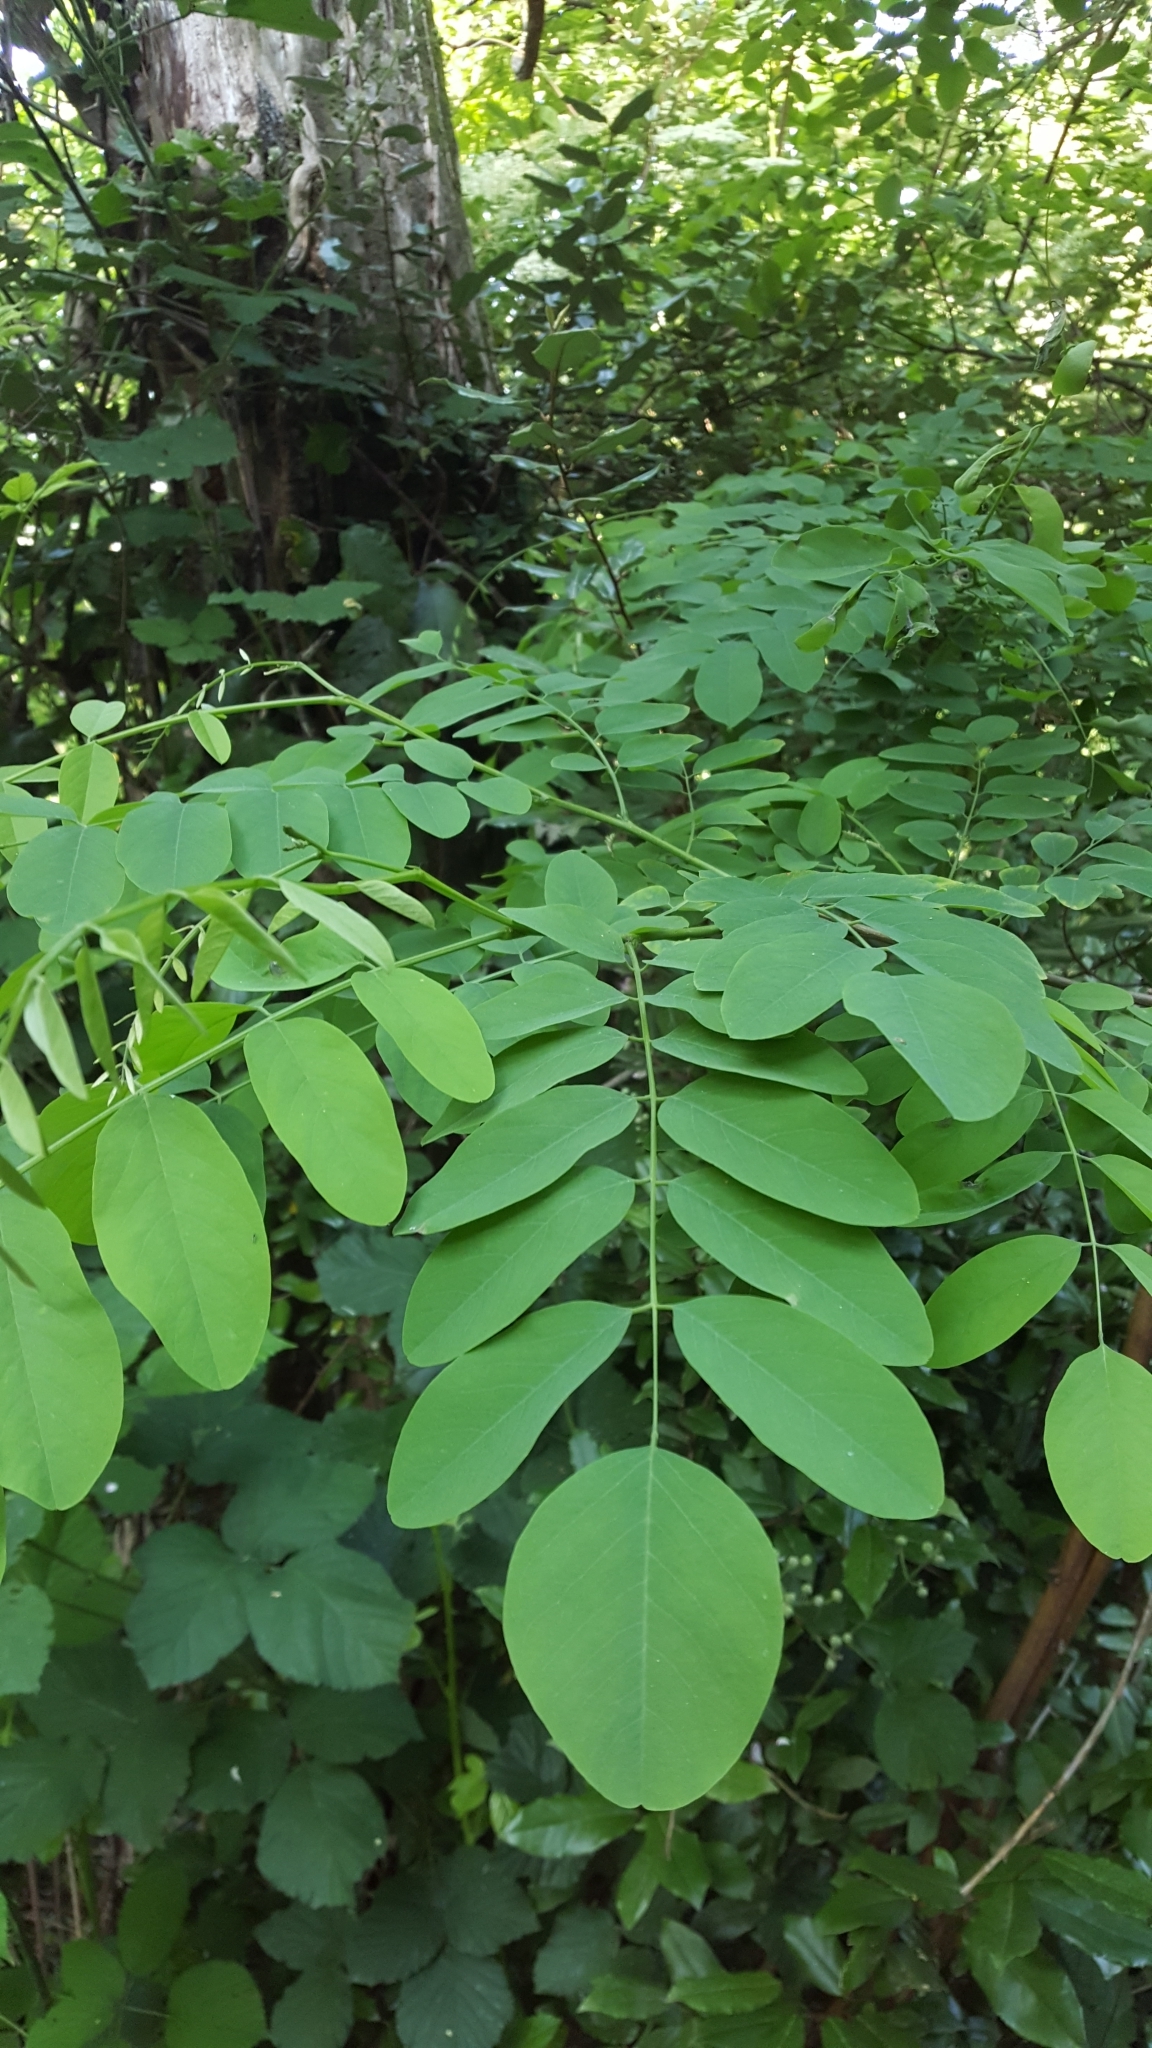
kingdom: Plantae
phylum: Tracheophyta
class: Magnoliopsida
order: Fabales
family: Fabaceae
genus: Robinia
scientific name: Robinia pseudoacacia
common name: Black locust
